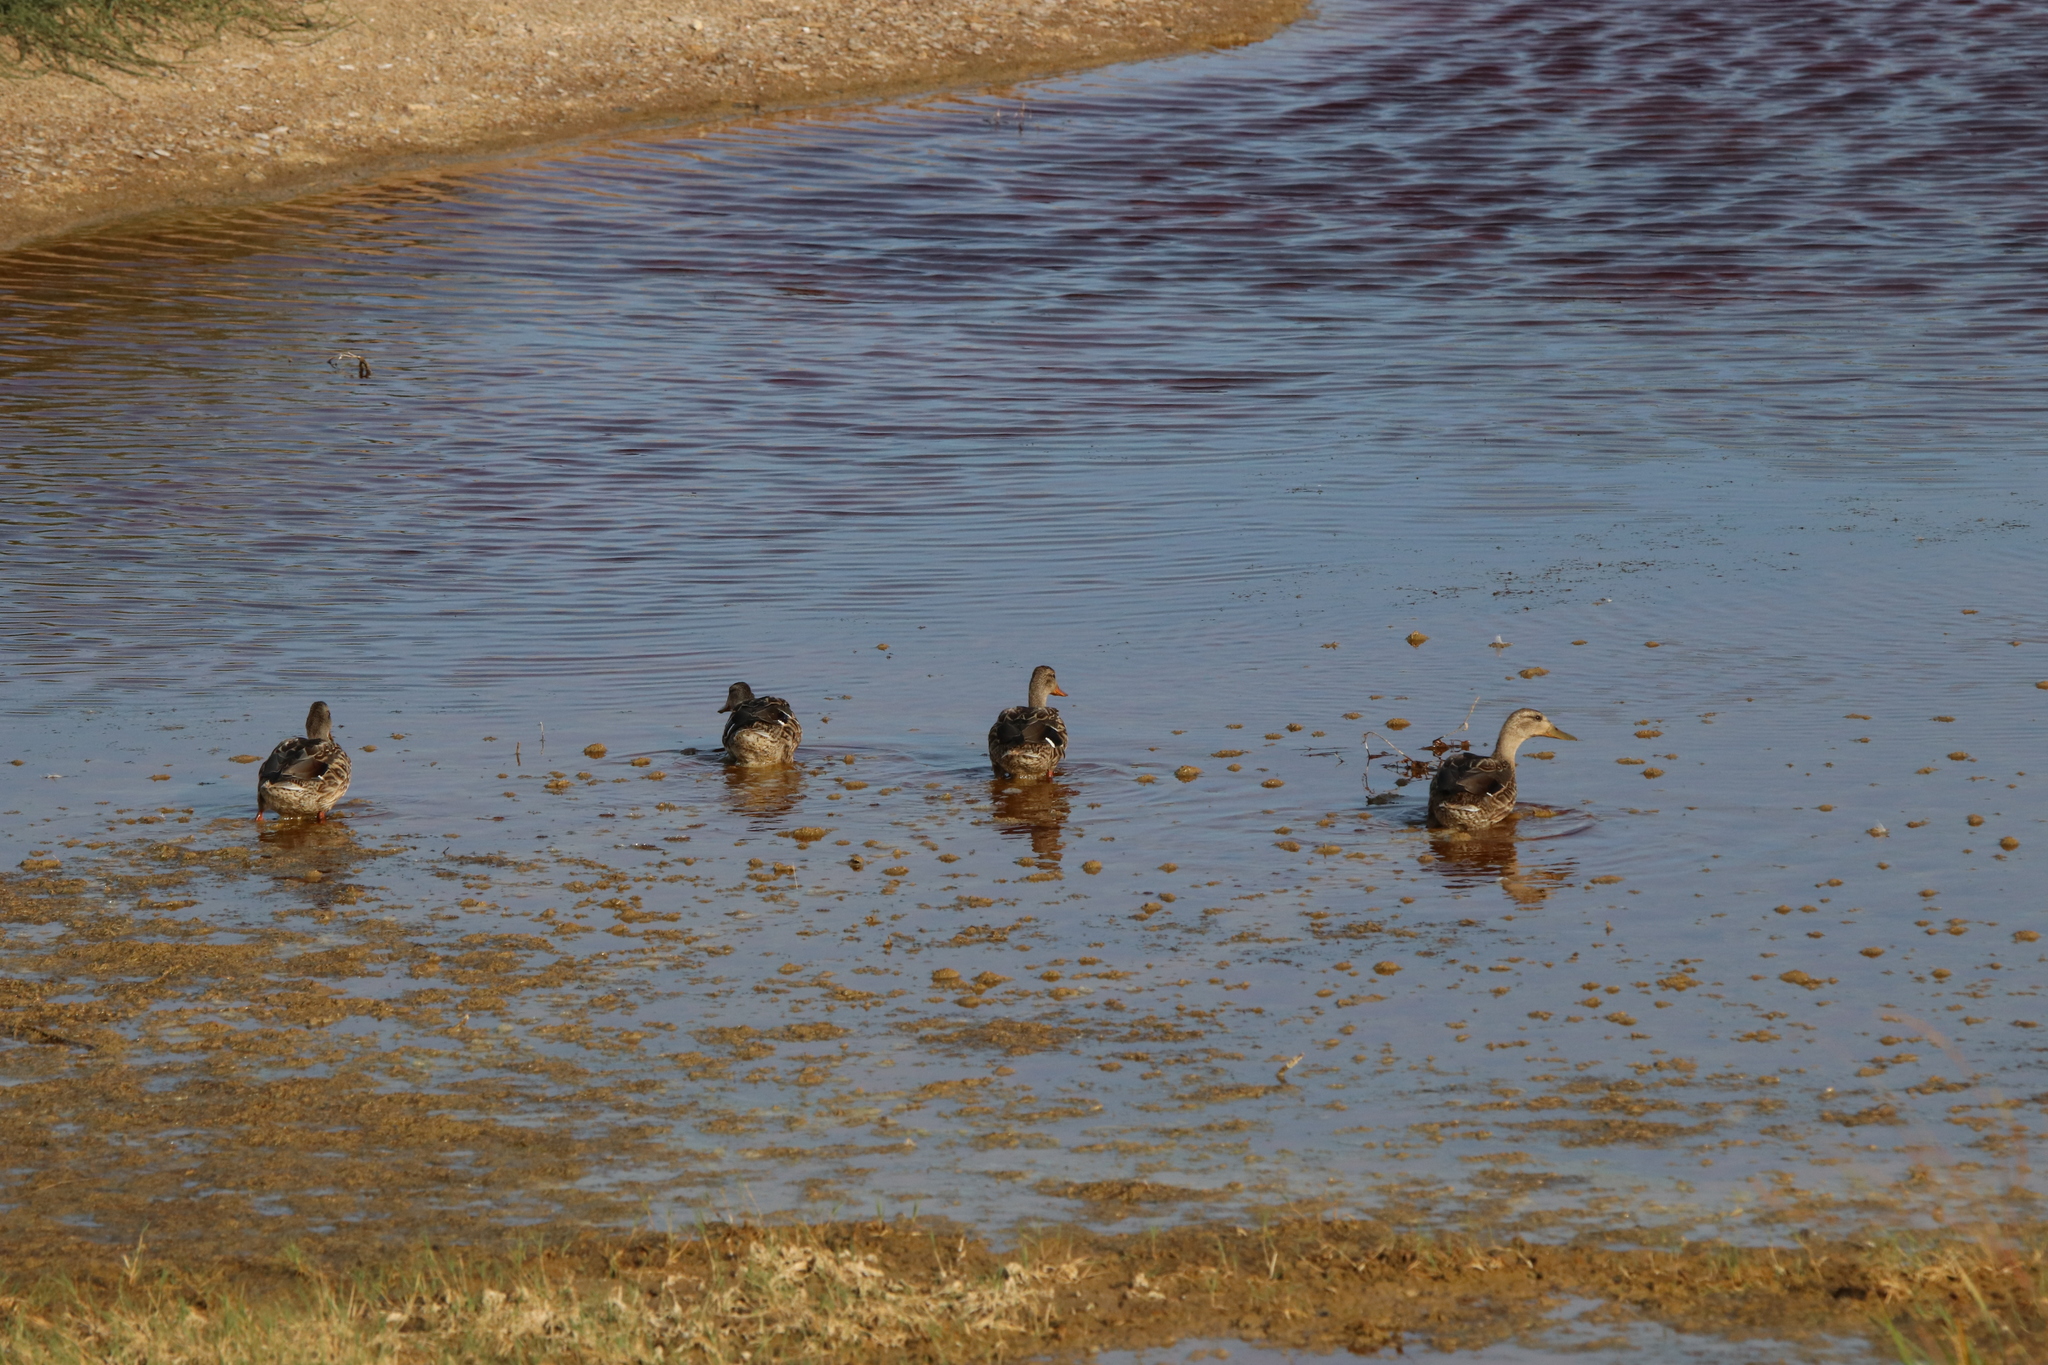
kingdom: Animalia
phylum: Chordata
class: Aves
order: Anseriformes
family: Anatidae
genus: Anas
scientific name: Anas platyrhynchos
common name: Mallard
